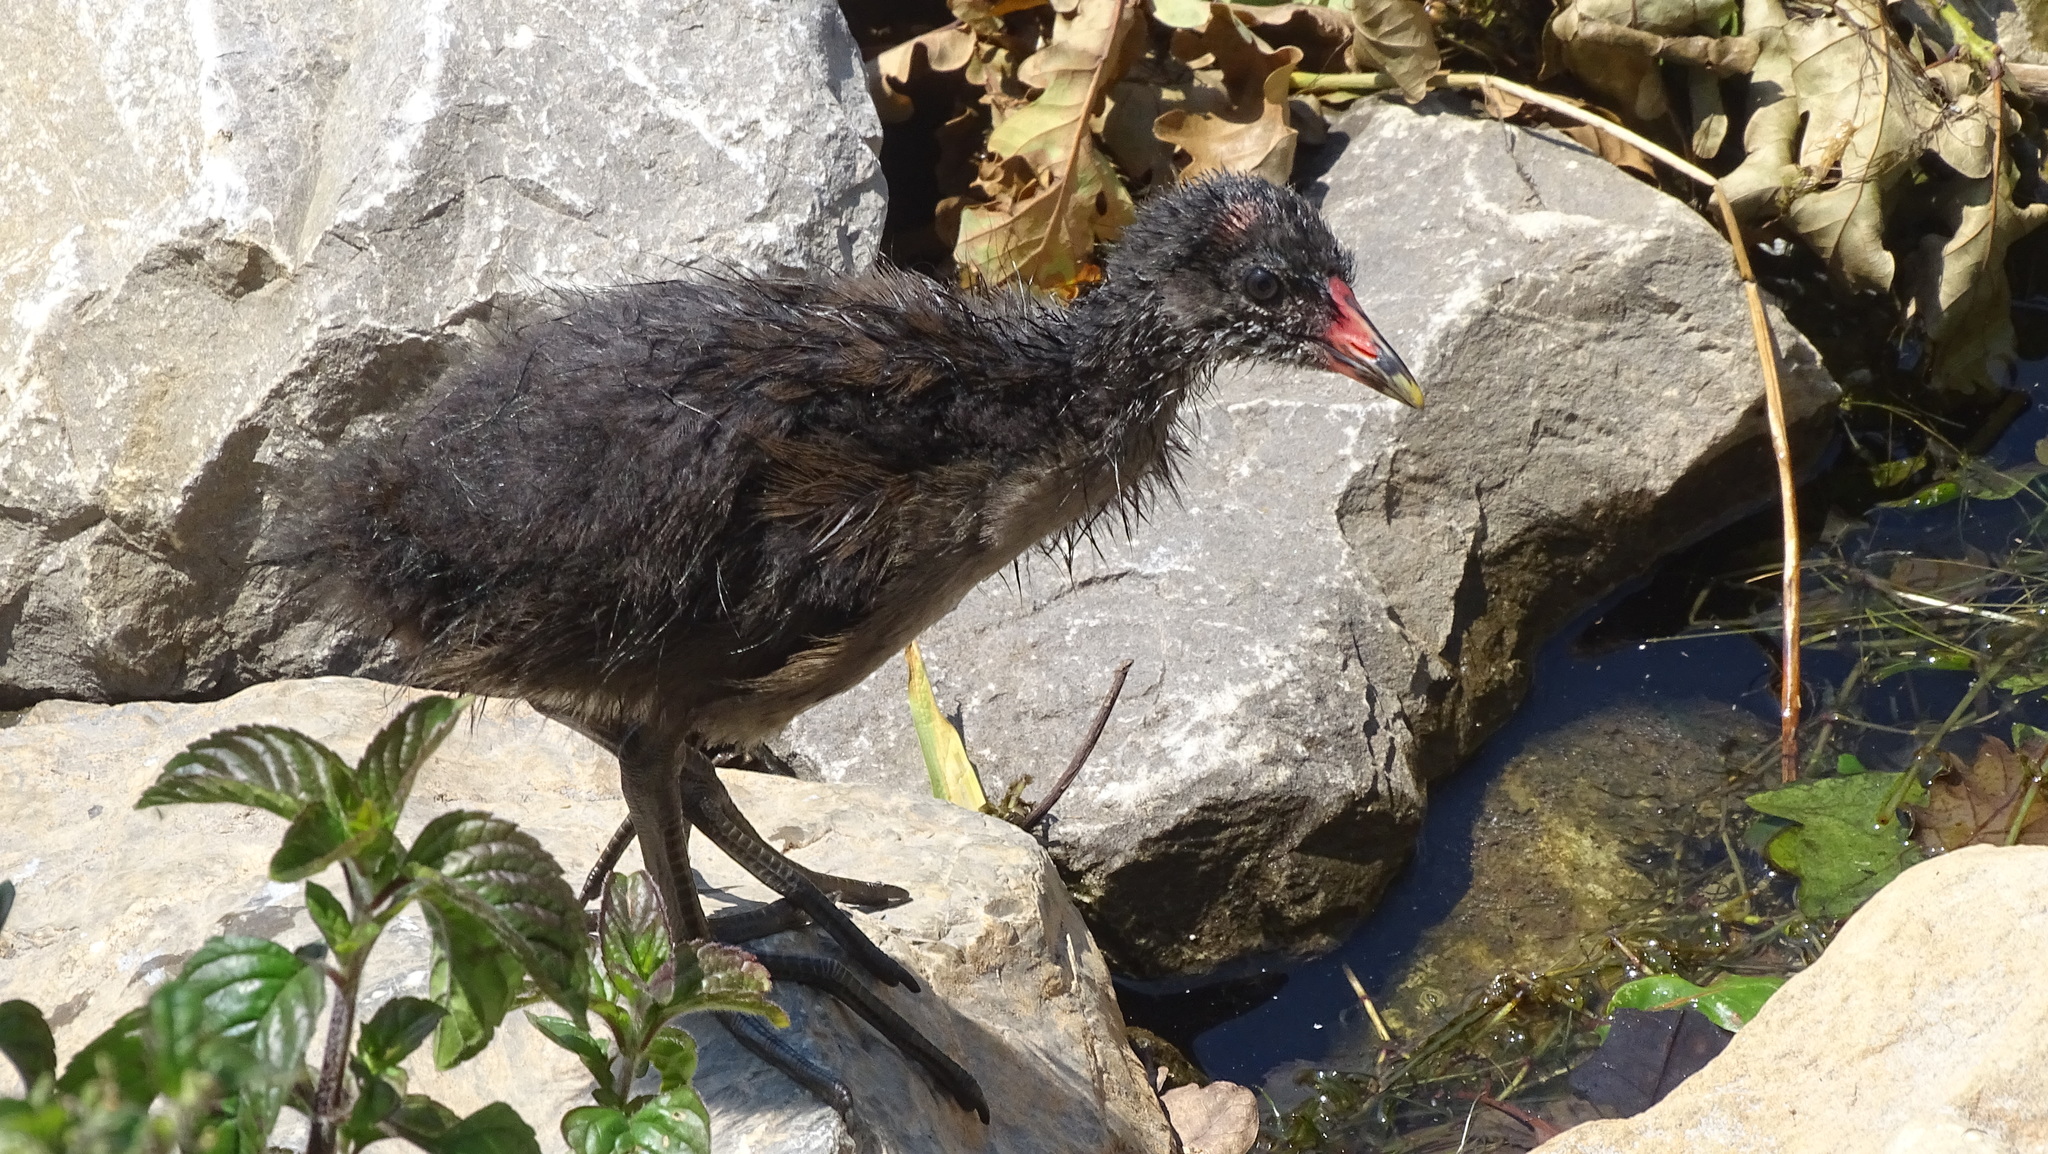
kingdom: Animalia
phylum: Chordata
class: Aves
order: Gruiformes
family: Rallidae
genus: Gallinula
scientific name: Gallinula chloropus
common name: Common moorhen
